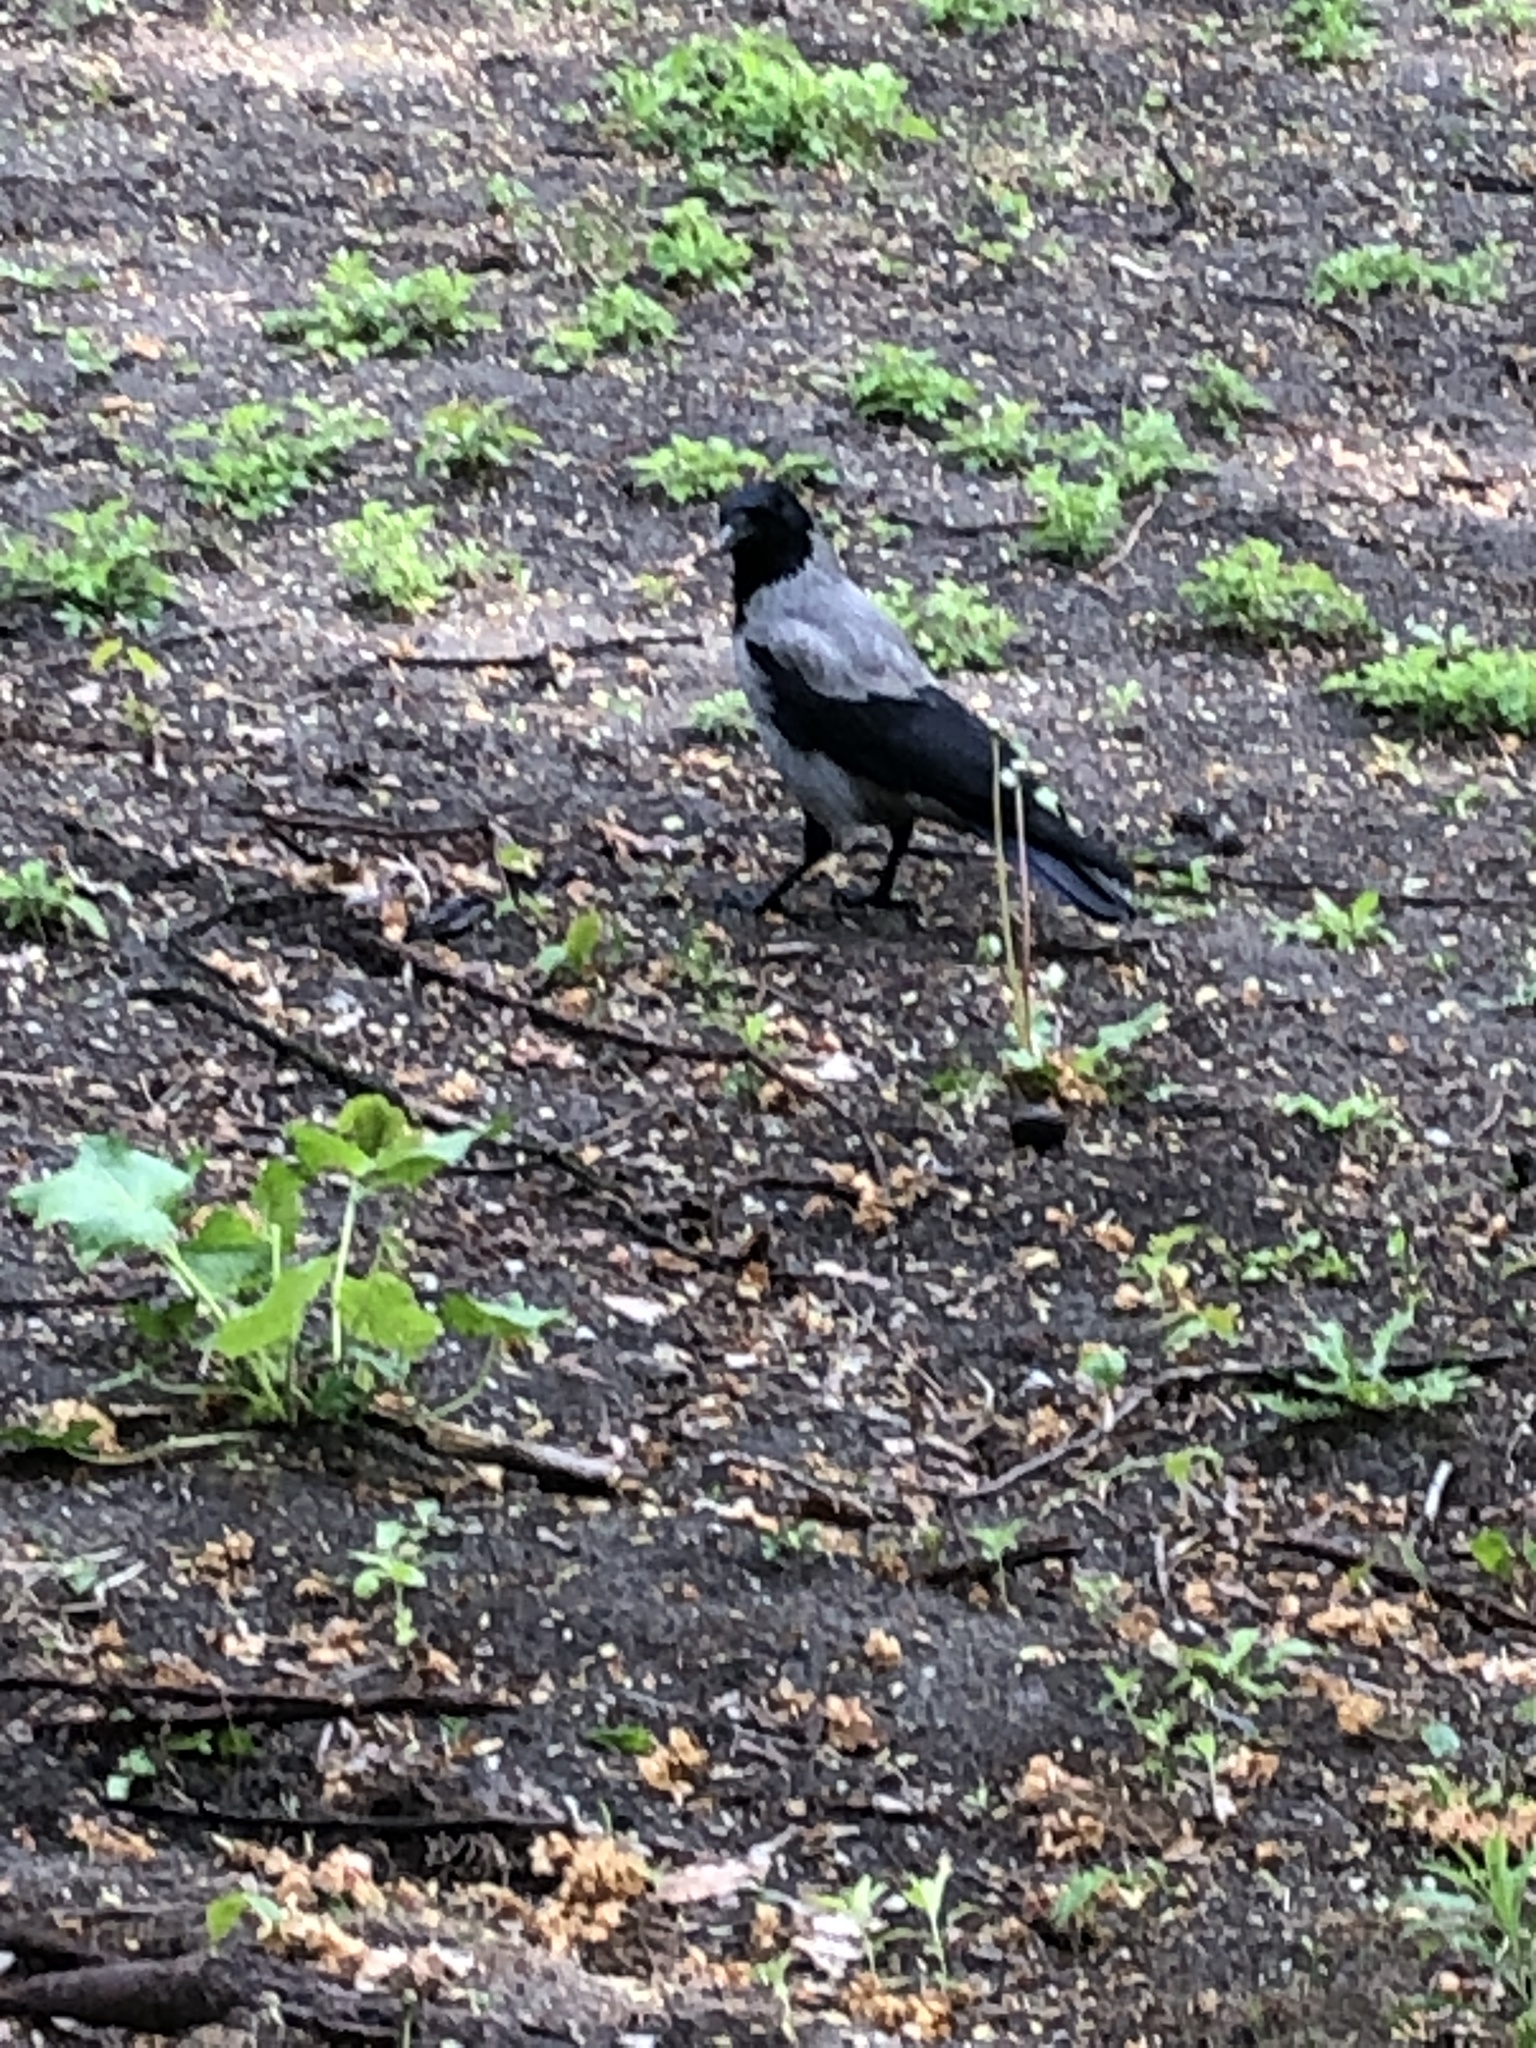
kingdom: Animalia
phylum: Chordata
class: Aves
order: Passeriformes
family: Corvidae
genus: Corvus
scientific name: Corvus cornix
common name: Hooded crow
